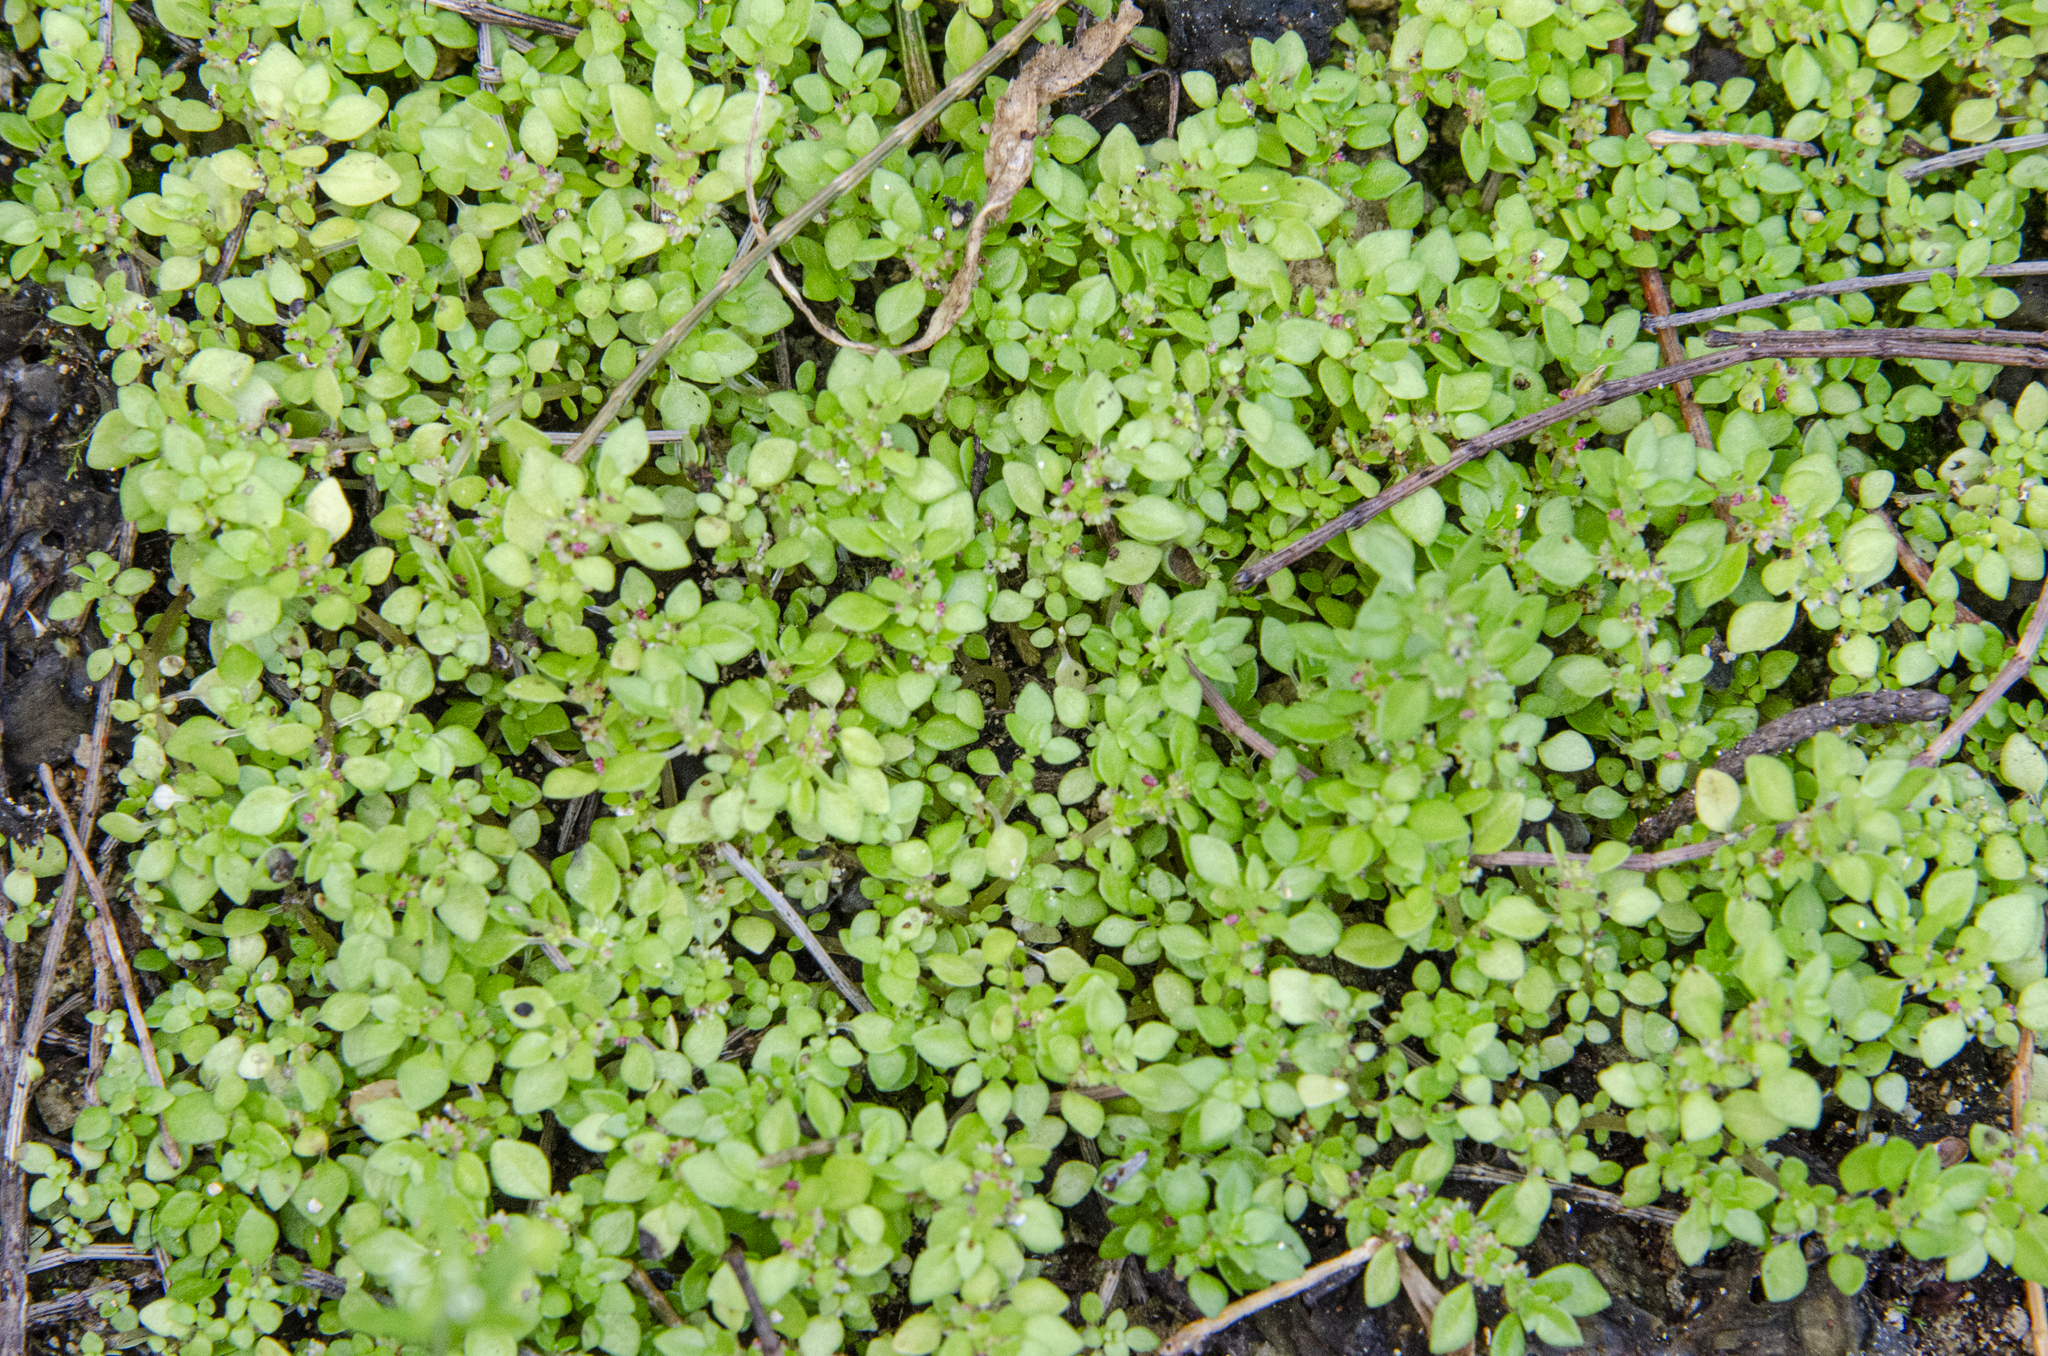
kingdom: Plantae
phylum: Tracheophyta
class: Magnoliopsida
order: Rosales
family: Urticaceae
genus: Pilea
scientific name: Pilea microphylla
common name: Artillery-plant
